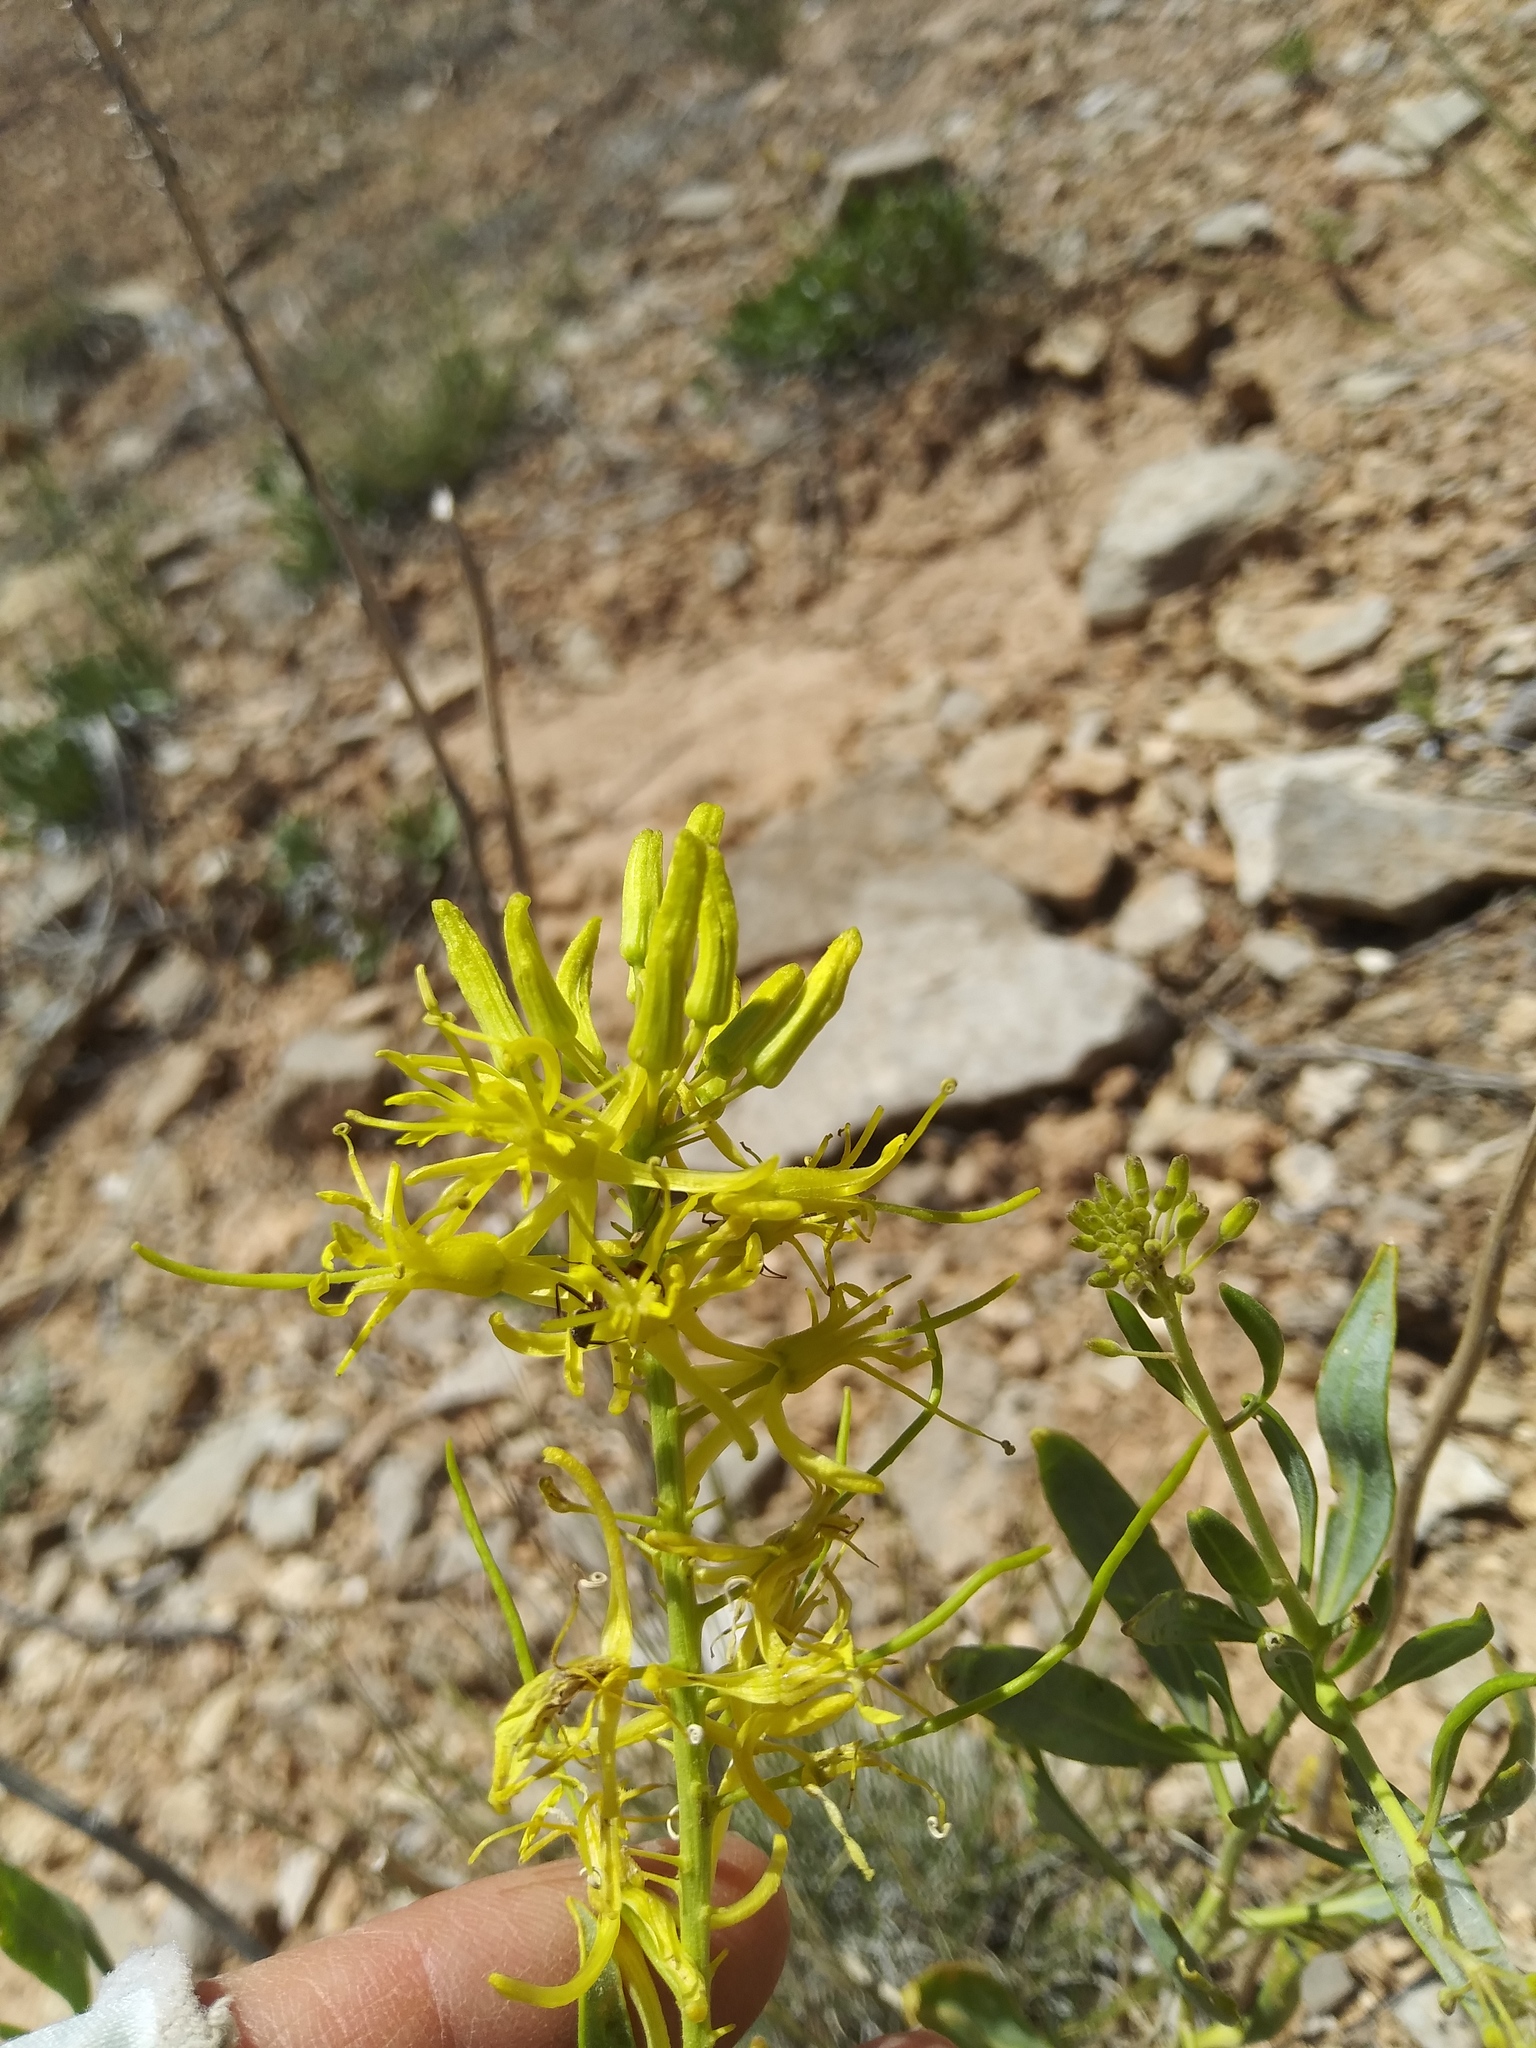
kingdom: Plantae
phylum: Tracheophyta
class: Magnoliopsida
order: Brassicales
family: Brassicaceae
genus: Stanleya
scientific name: Stanleya pinnata
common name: Prince's-plume
